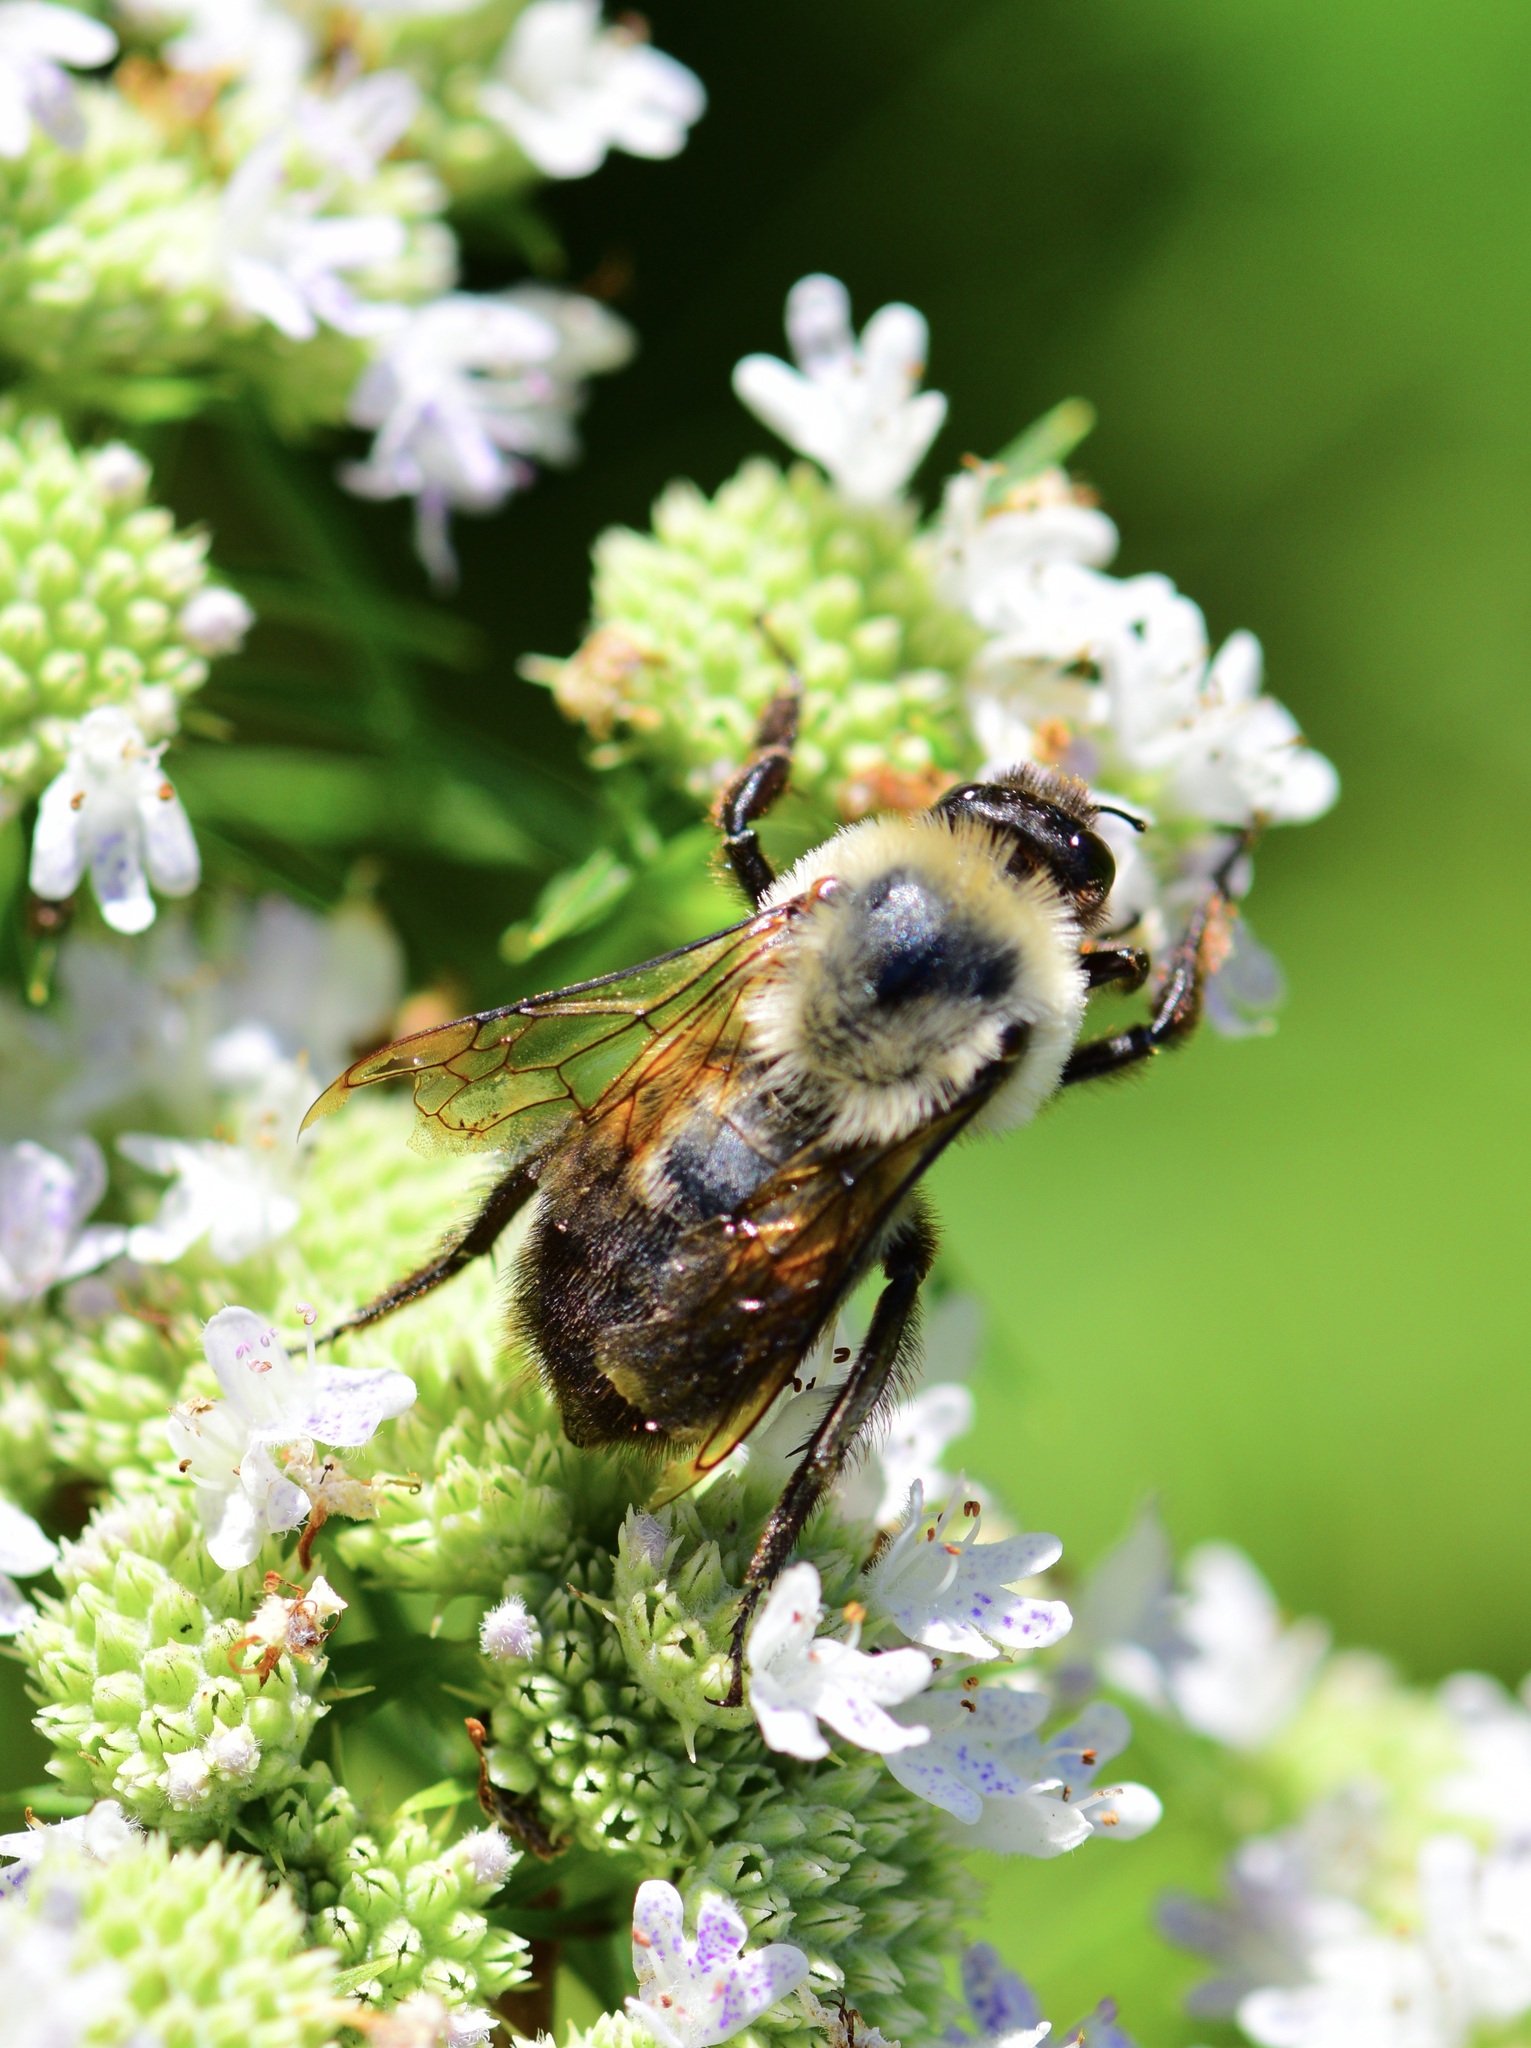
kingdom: Animalia
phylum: Arthropoda
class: Insecta
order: Hymenoptera
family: Apidae
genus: Bombus
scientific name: Bombus griseocollis
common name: Brown-belted bumble bee
